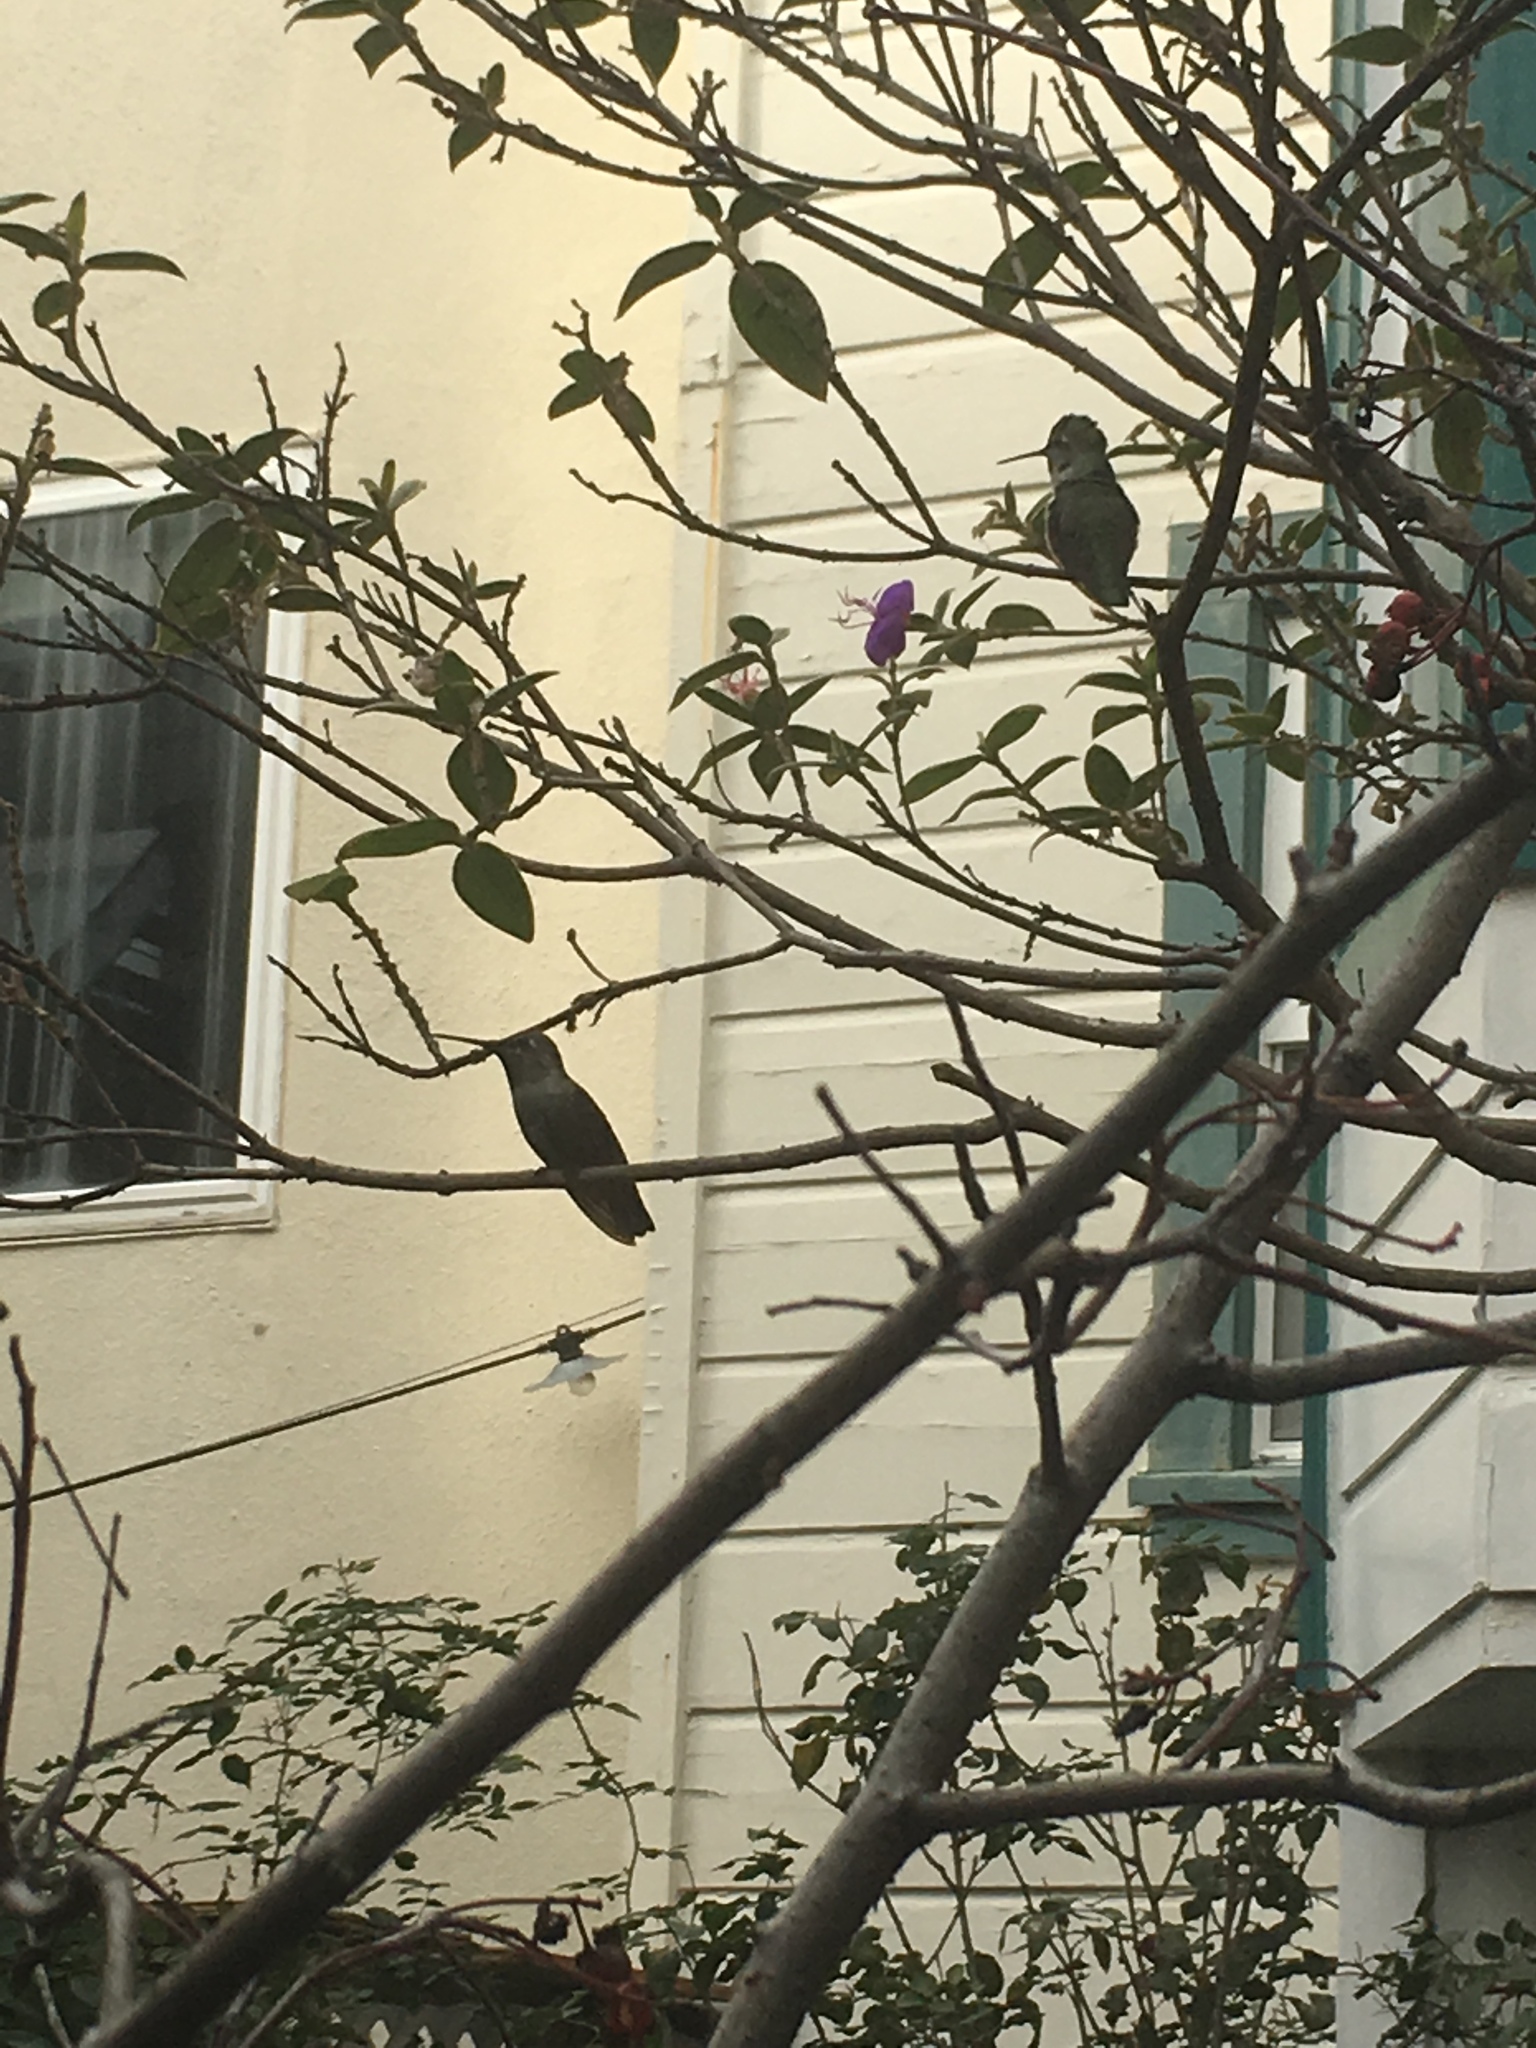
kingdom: Animalia
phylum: Chordata
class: Aves
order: Apodiformes
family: Trochilidae
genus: Calypte
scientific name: Calypte anna
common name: Anna's hummingbird
